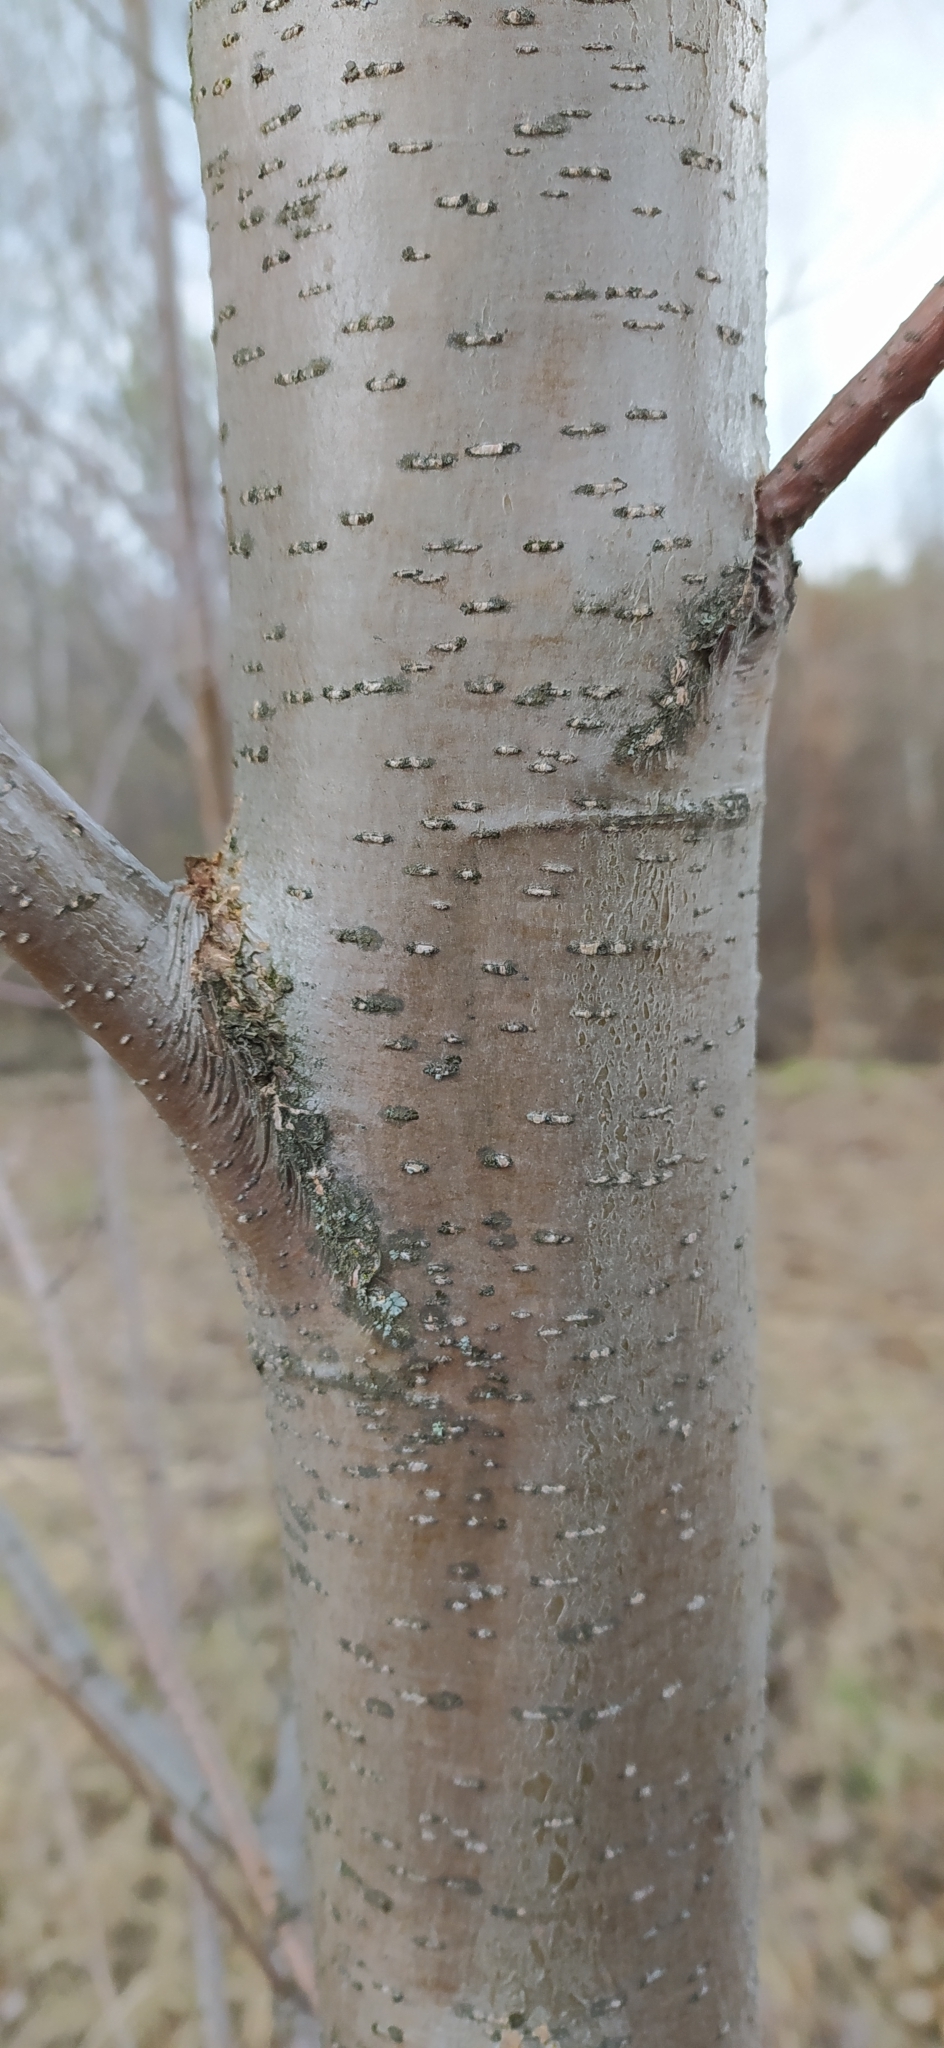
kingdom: Plantae
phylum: Tracheophyta
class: Magnoliopsida
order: Fagales
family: Betulaceae
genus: Alnus
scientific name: Alnus incana
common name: Grey alder
